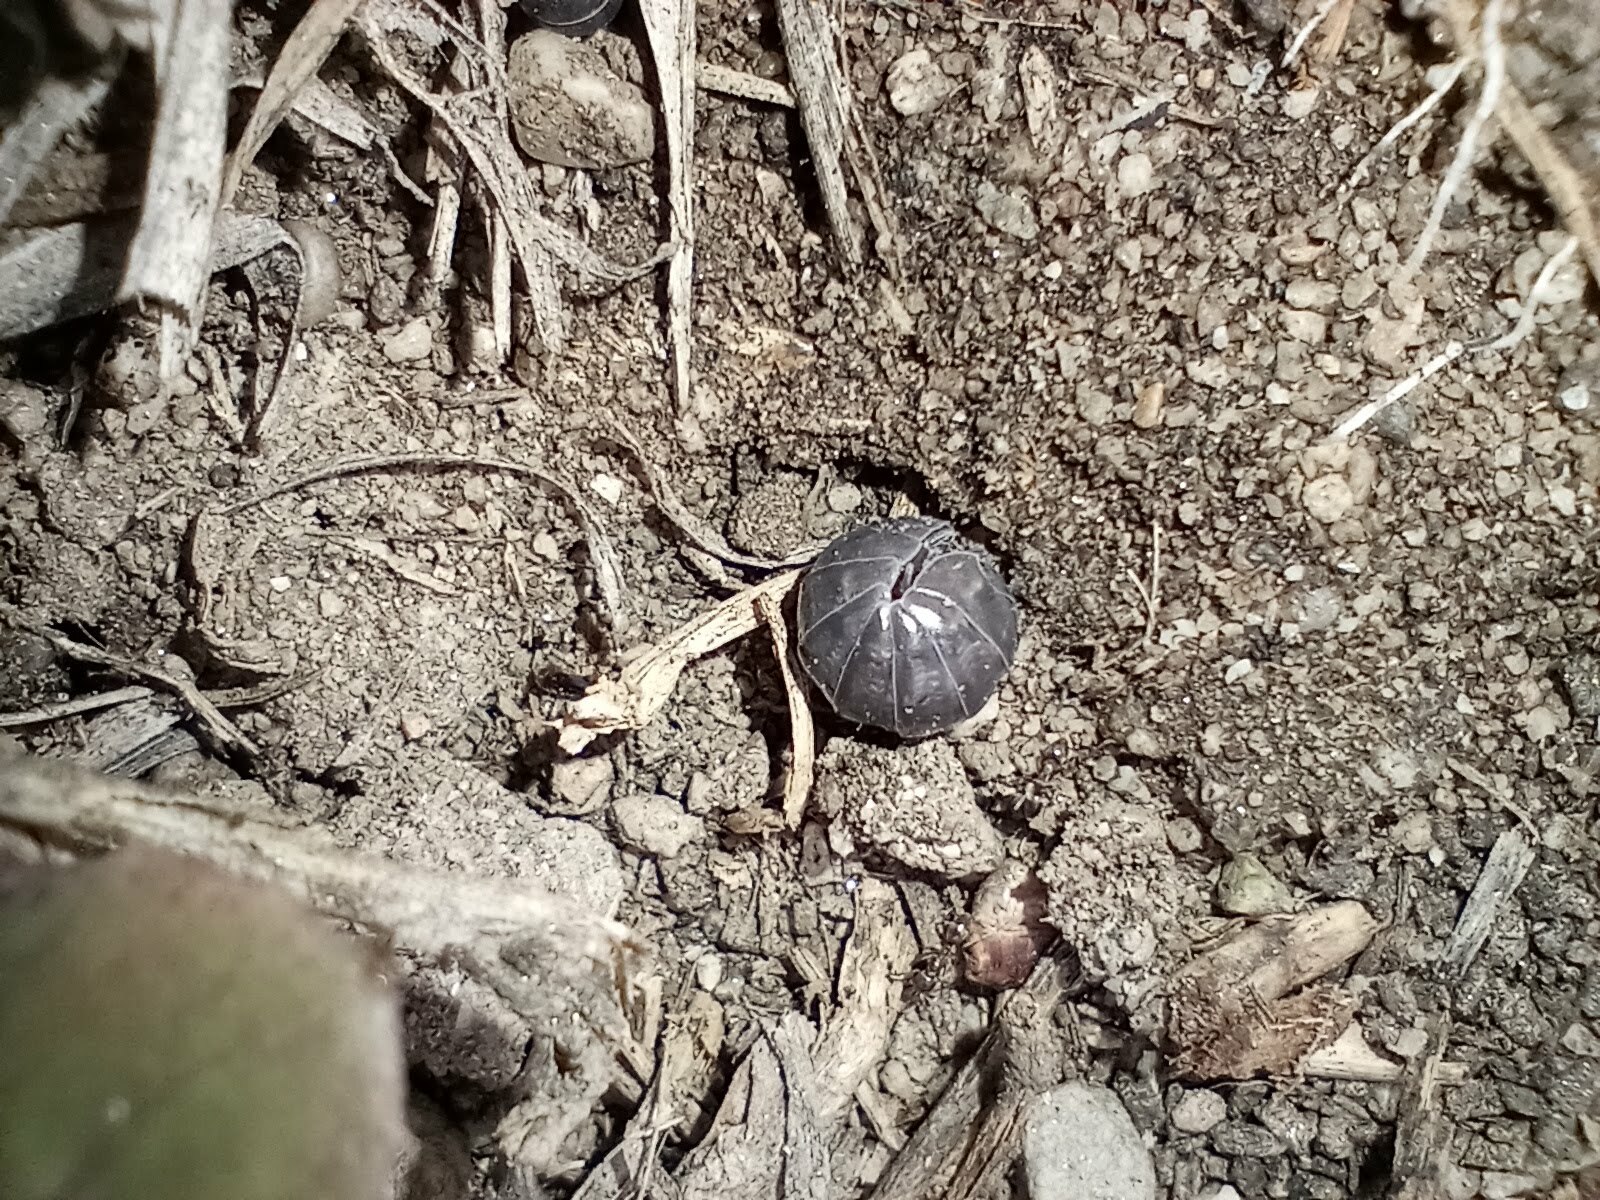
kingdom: Animalia
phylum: Arthropoda
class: Malacostraca
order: Isopoda
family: Armadillidiidae
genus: Armadillidium
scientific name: Armadillidium vulgare
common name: Common pill woodlouse
